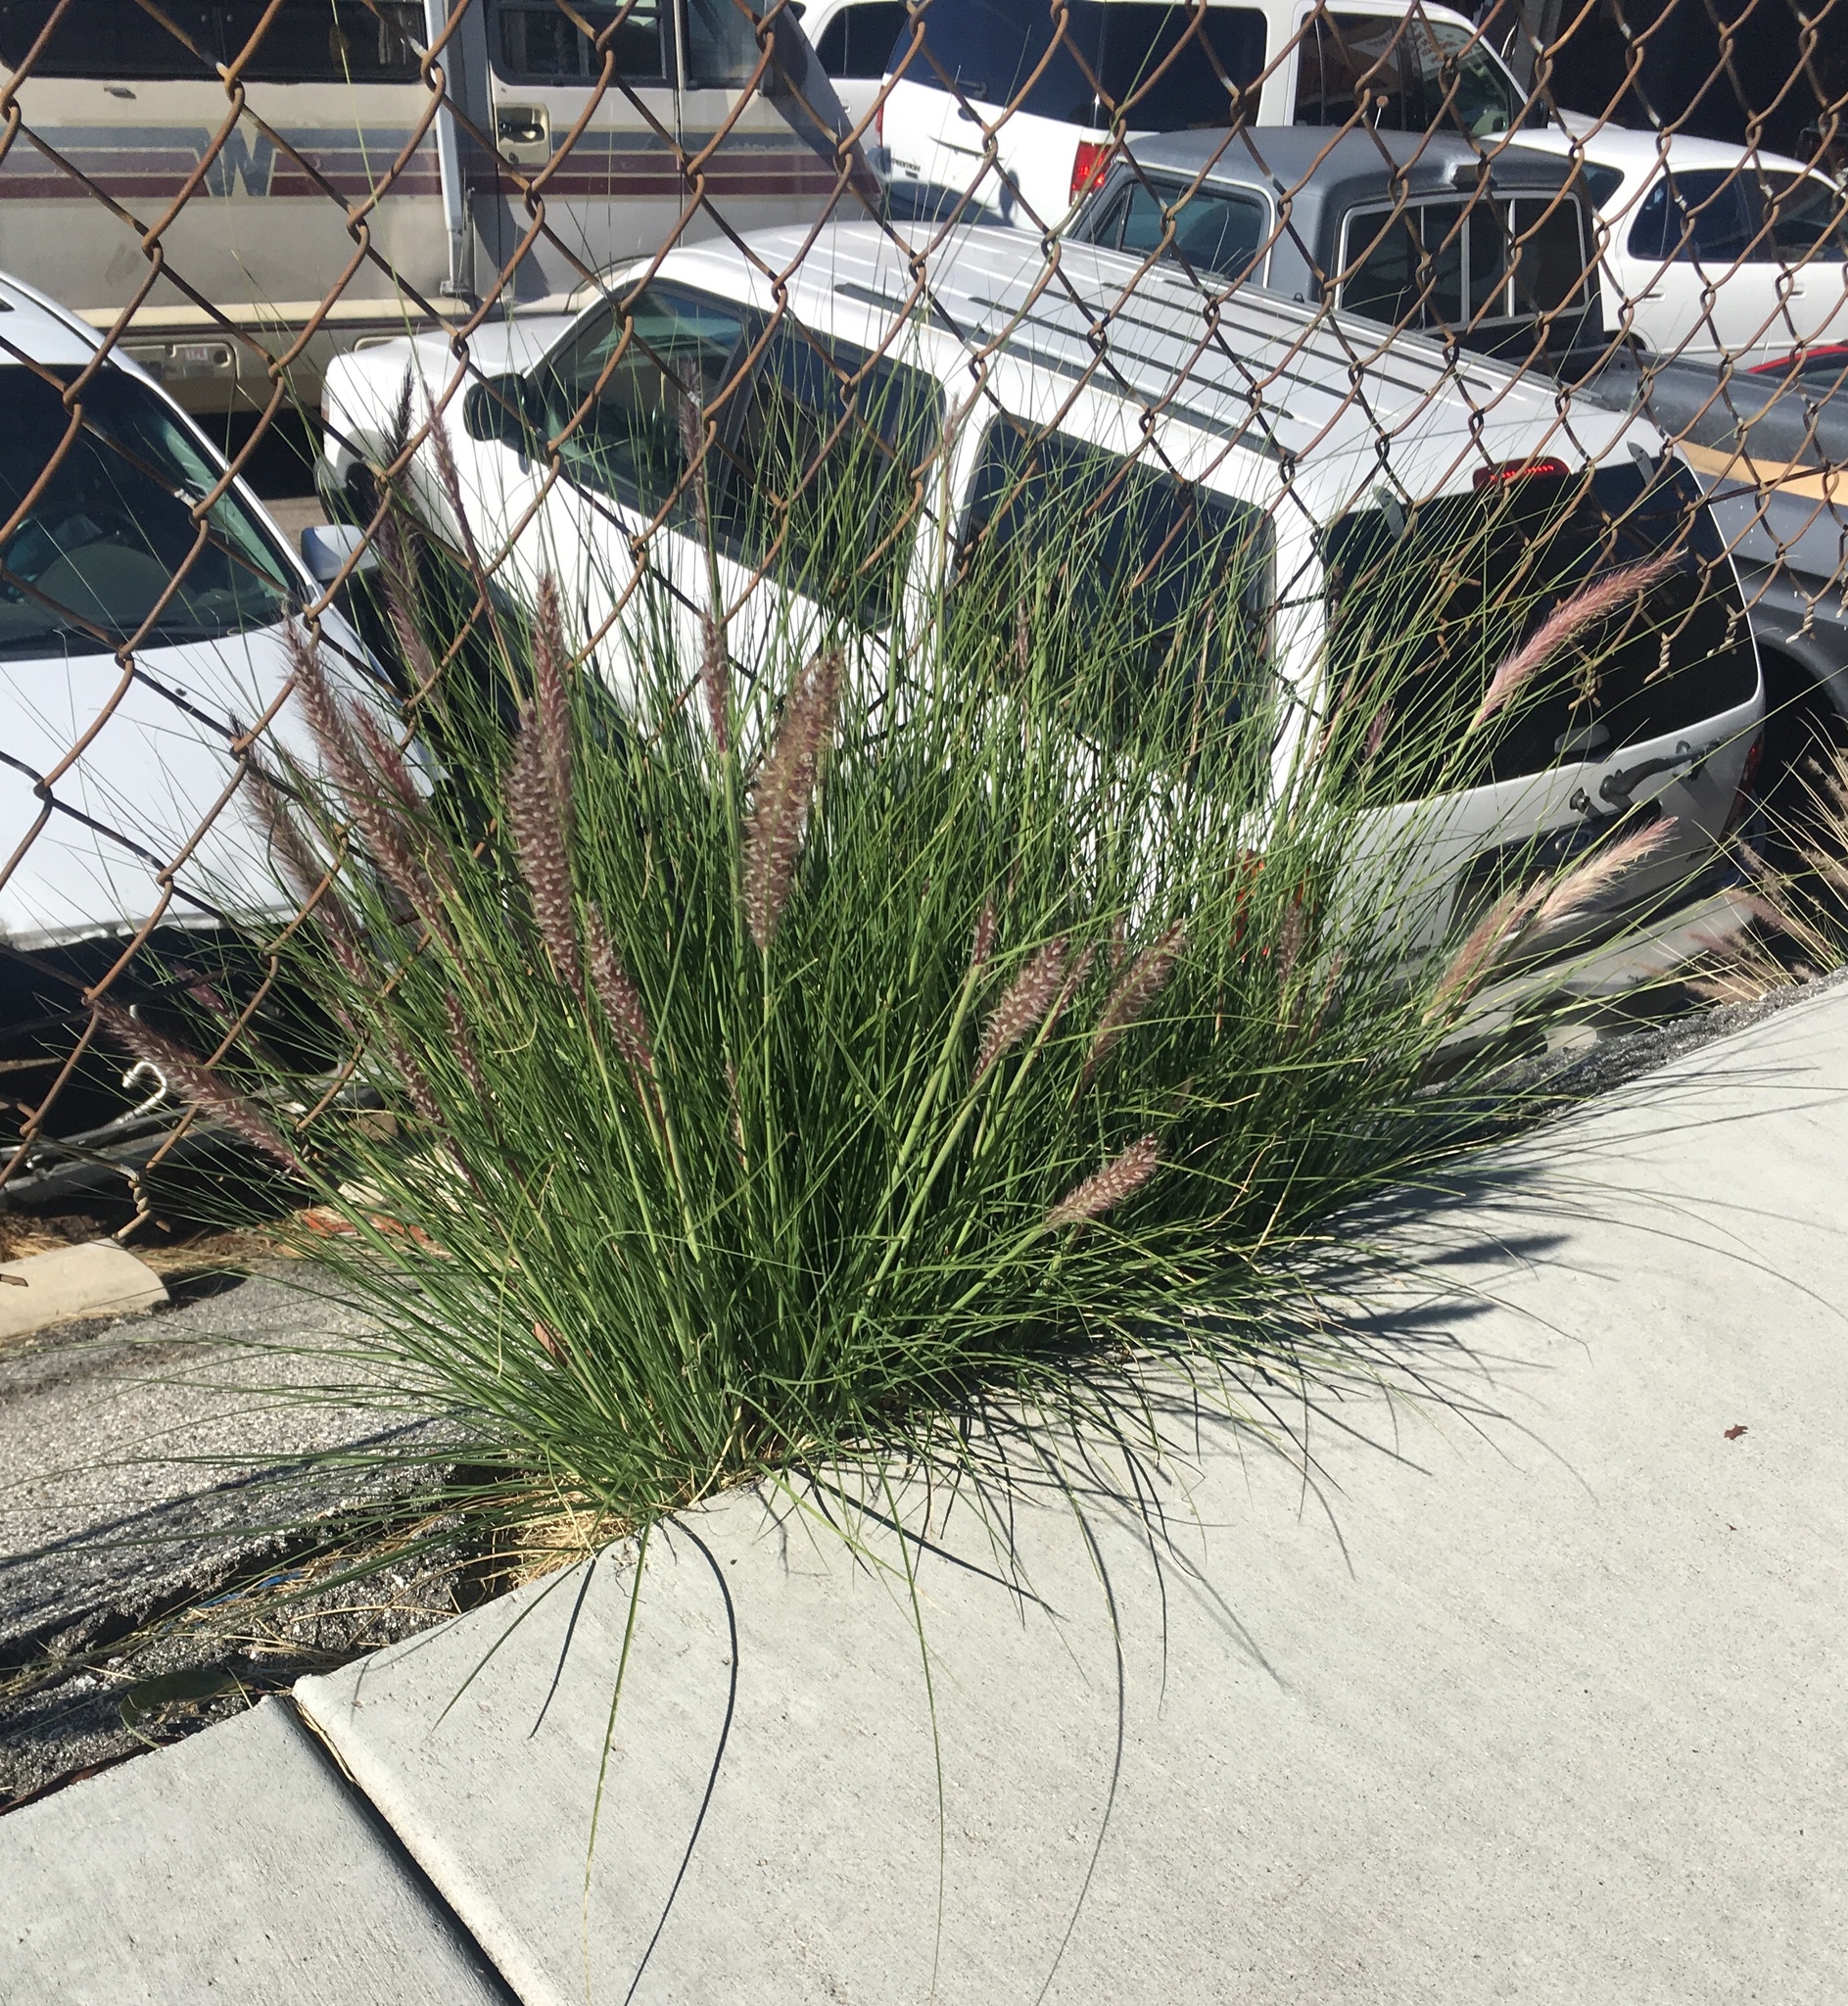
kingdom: Plantae
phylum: Tracheophyta
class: Liliopsida
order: Poales
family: Poaceae
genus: Cenchrus
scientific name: Cenchrus setaceus
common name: Crimson fountaingrass
